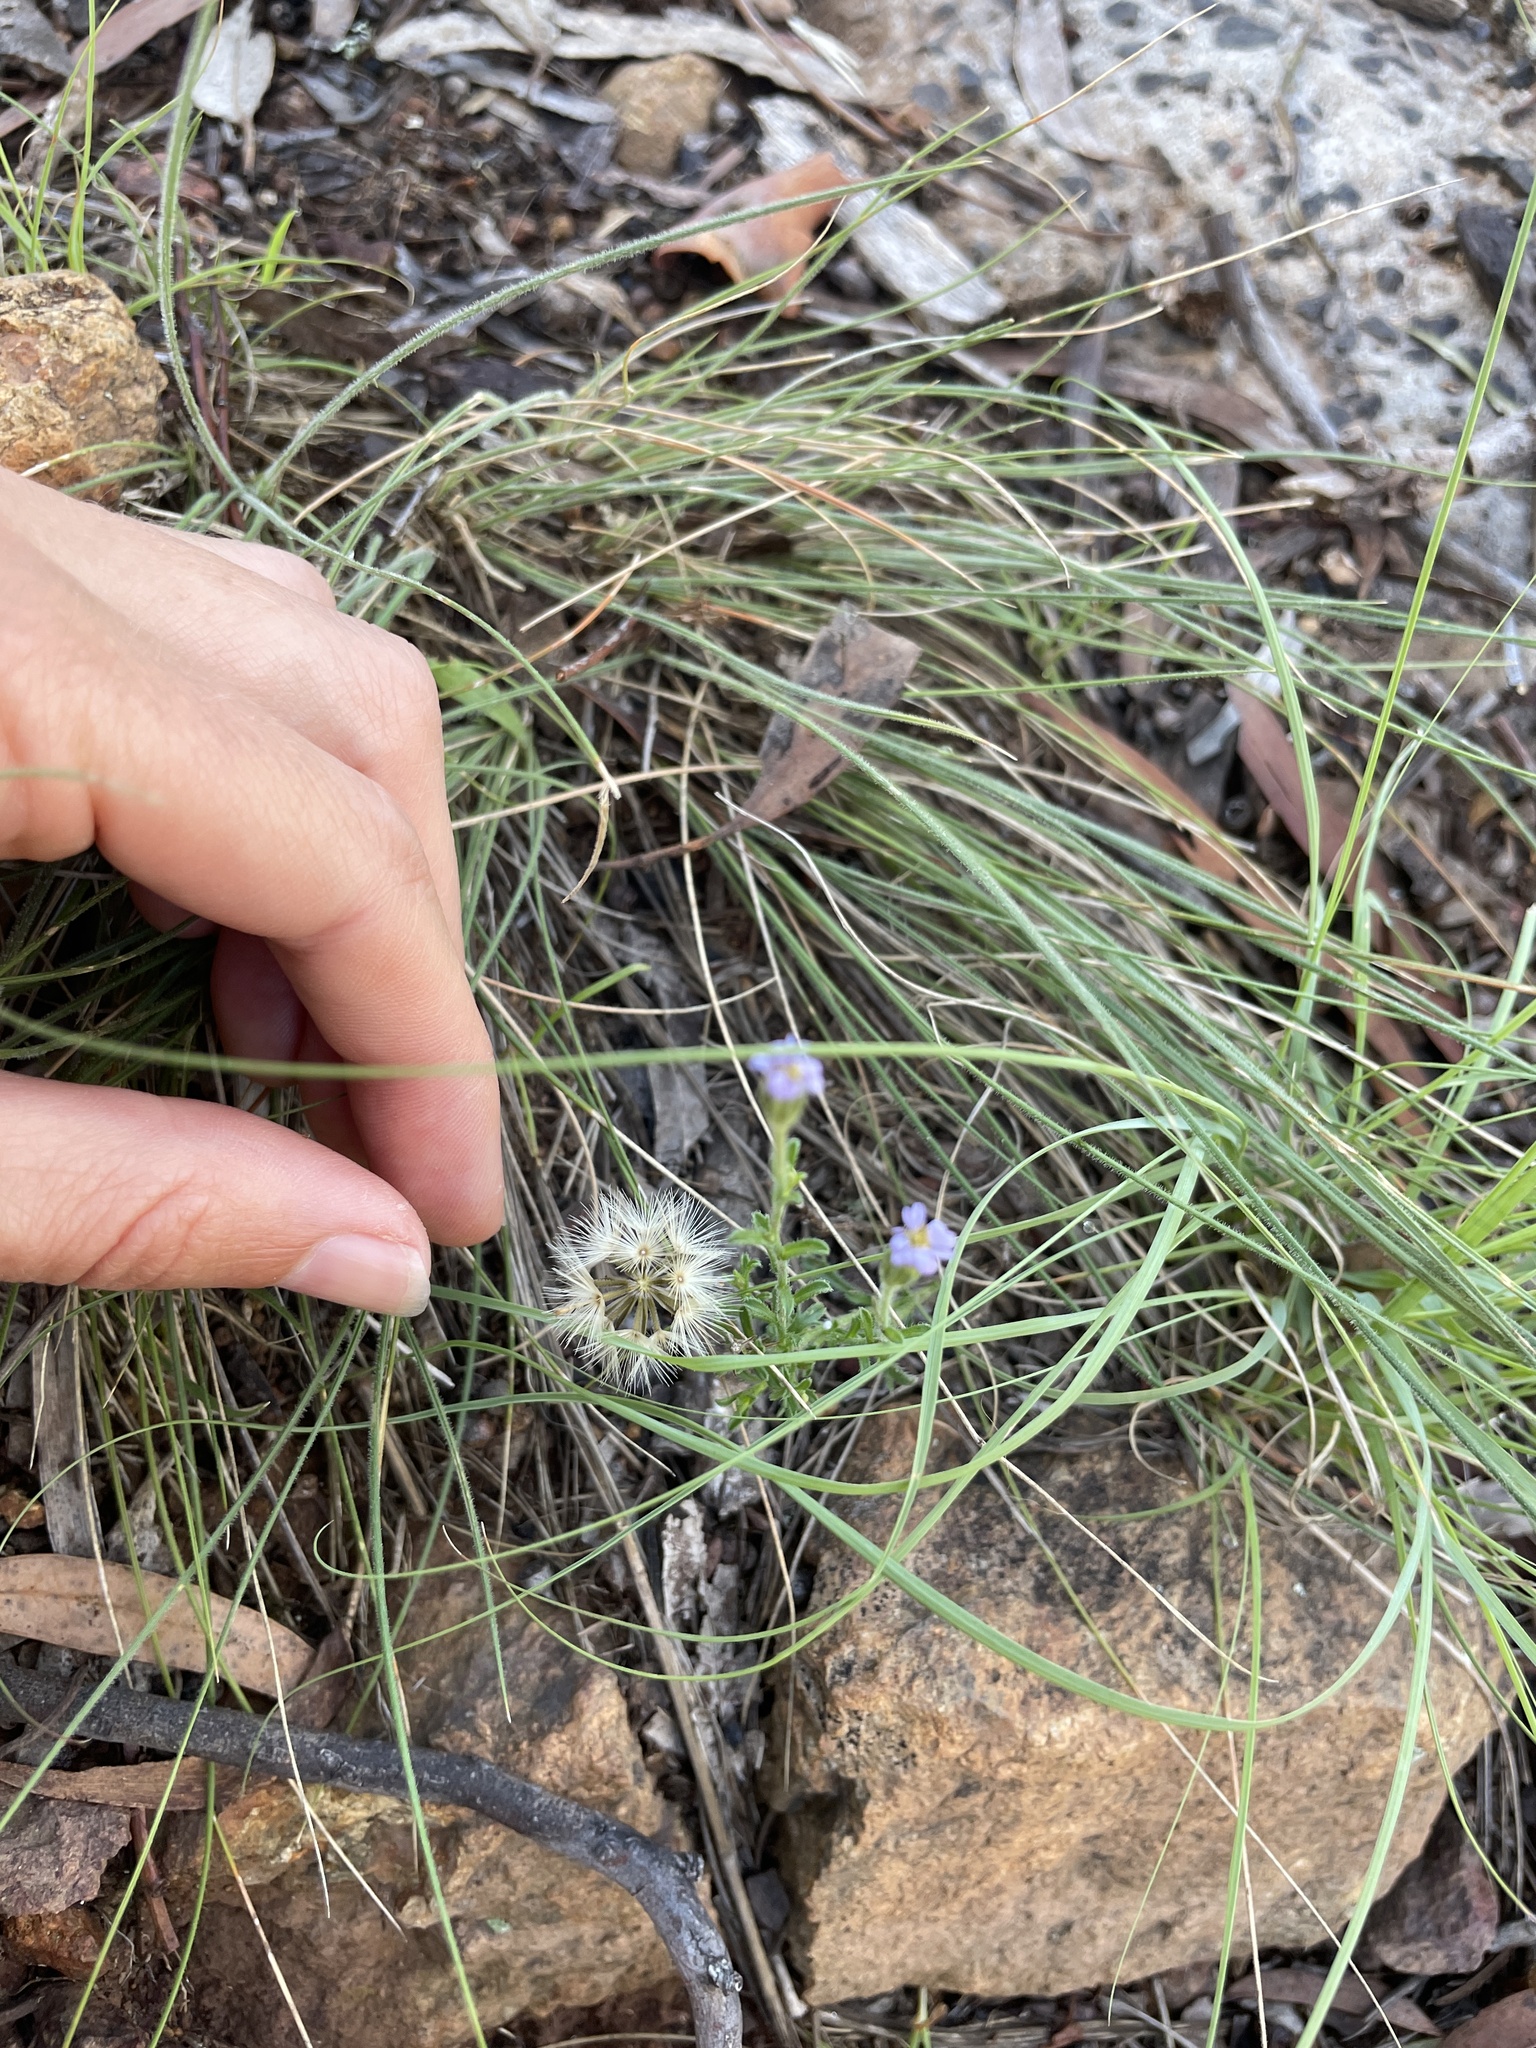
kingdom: Plantae
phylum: Tracheophyta
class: Magnoliopsida
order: Asterales
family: Asteraceae
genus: Vittadinia
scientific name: Vittadinia cuneata
